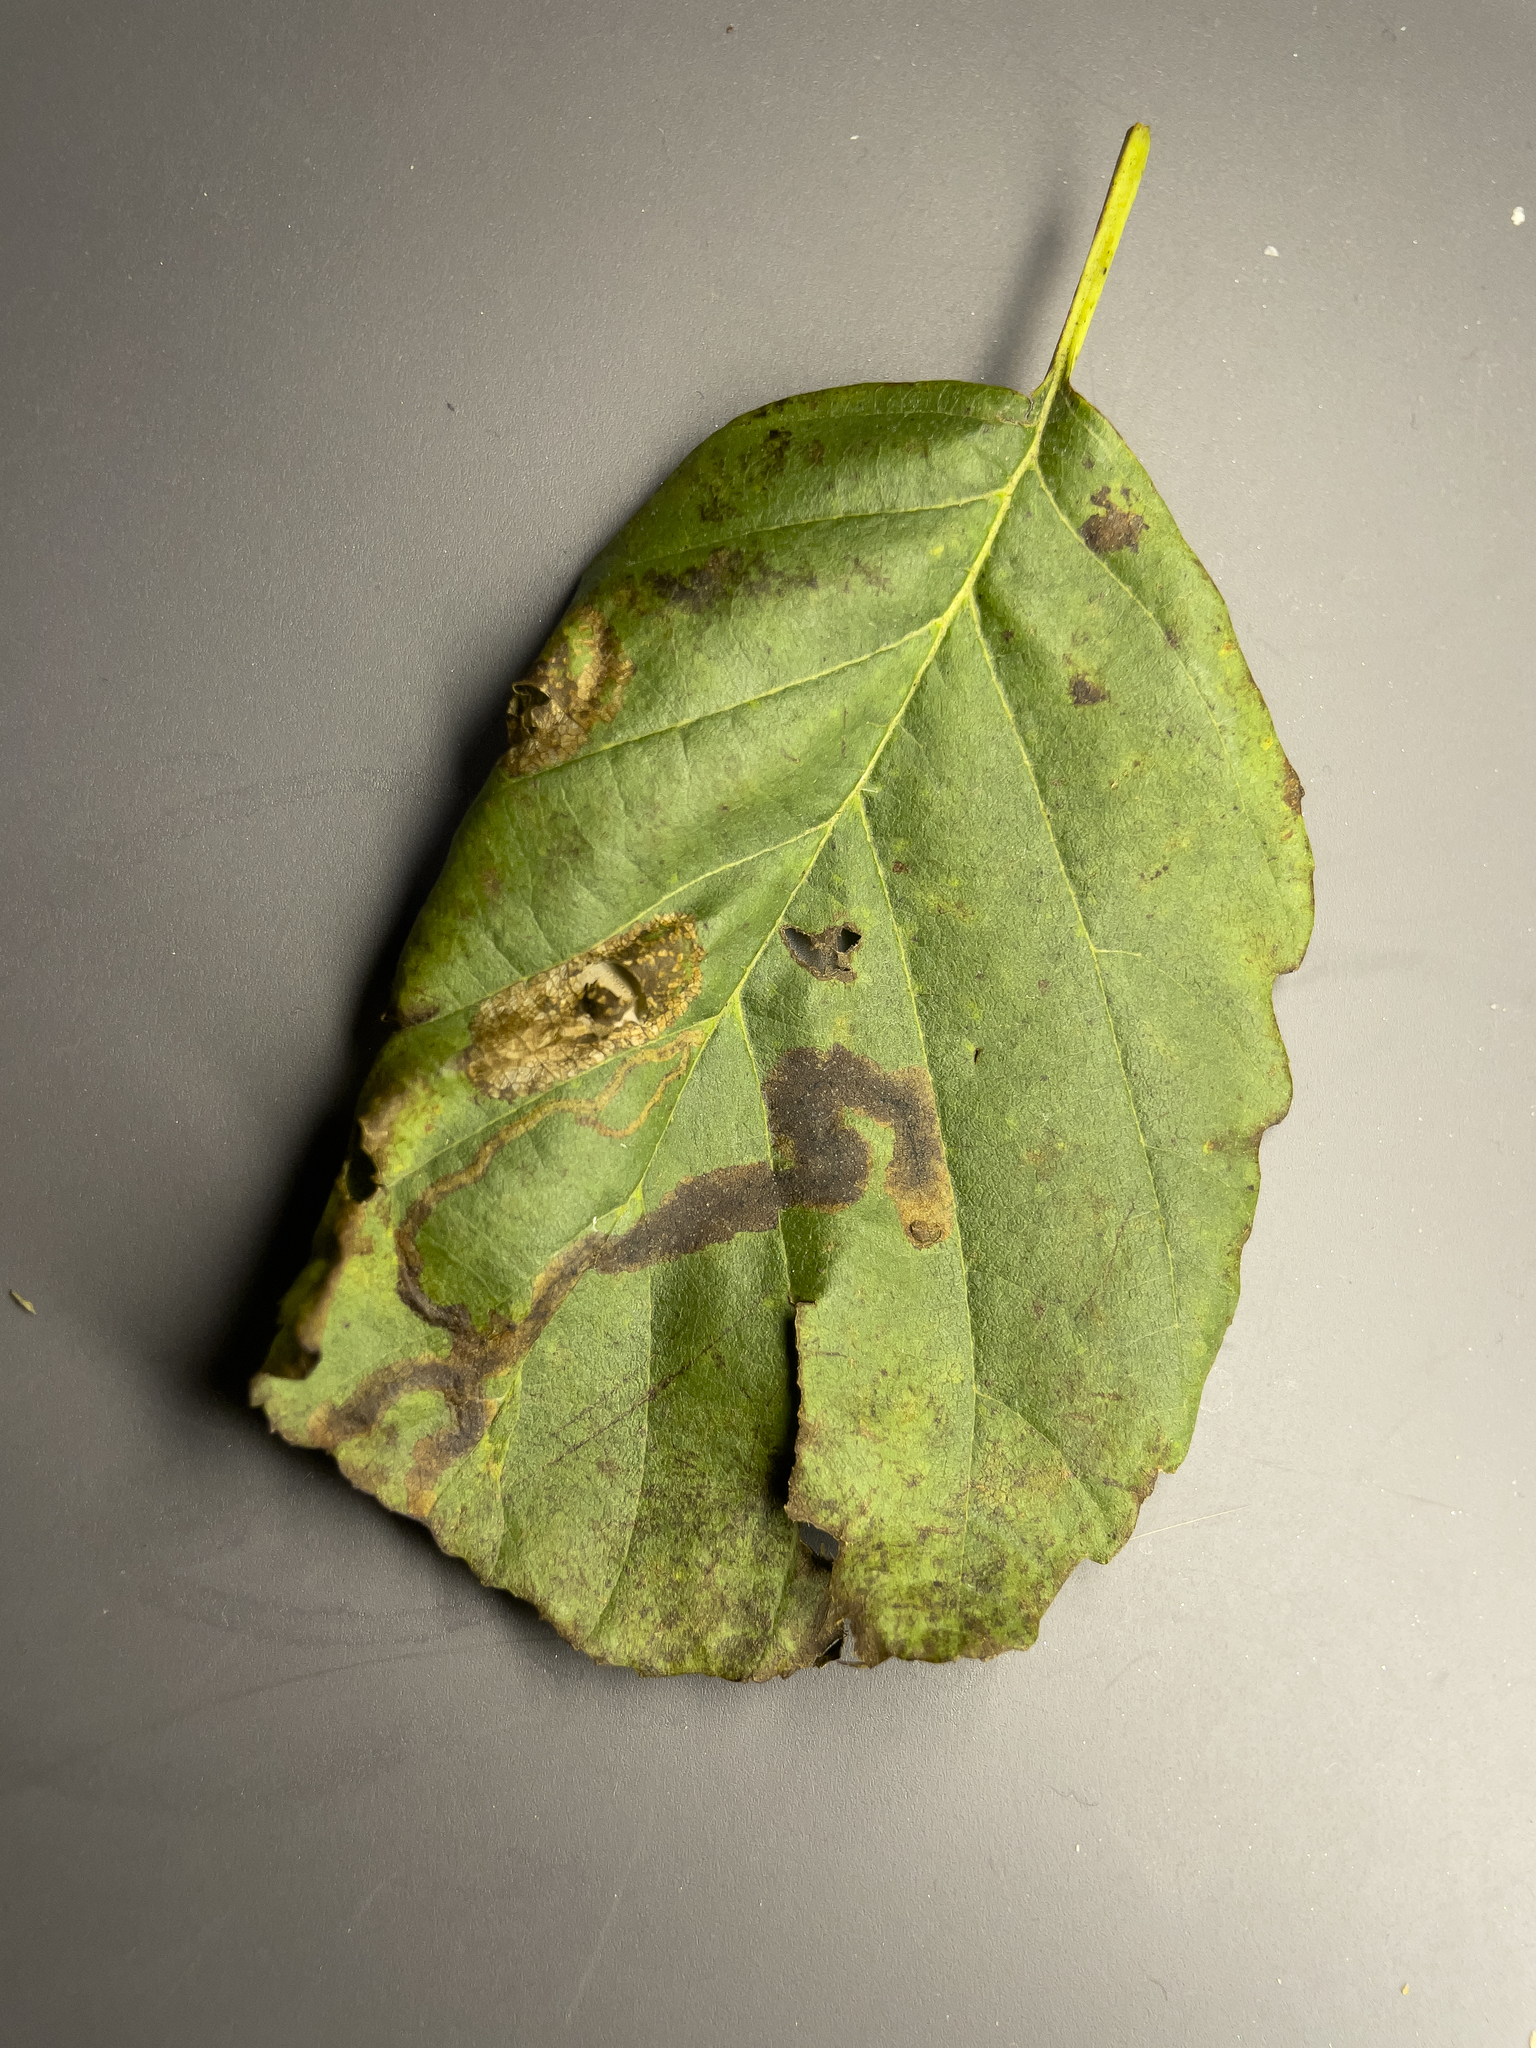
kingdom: Animalia
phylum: Arthropoda
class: Insecta
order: Diptera
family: Agromyzidae
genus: Agromyza
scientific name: Agromyza alnivora
